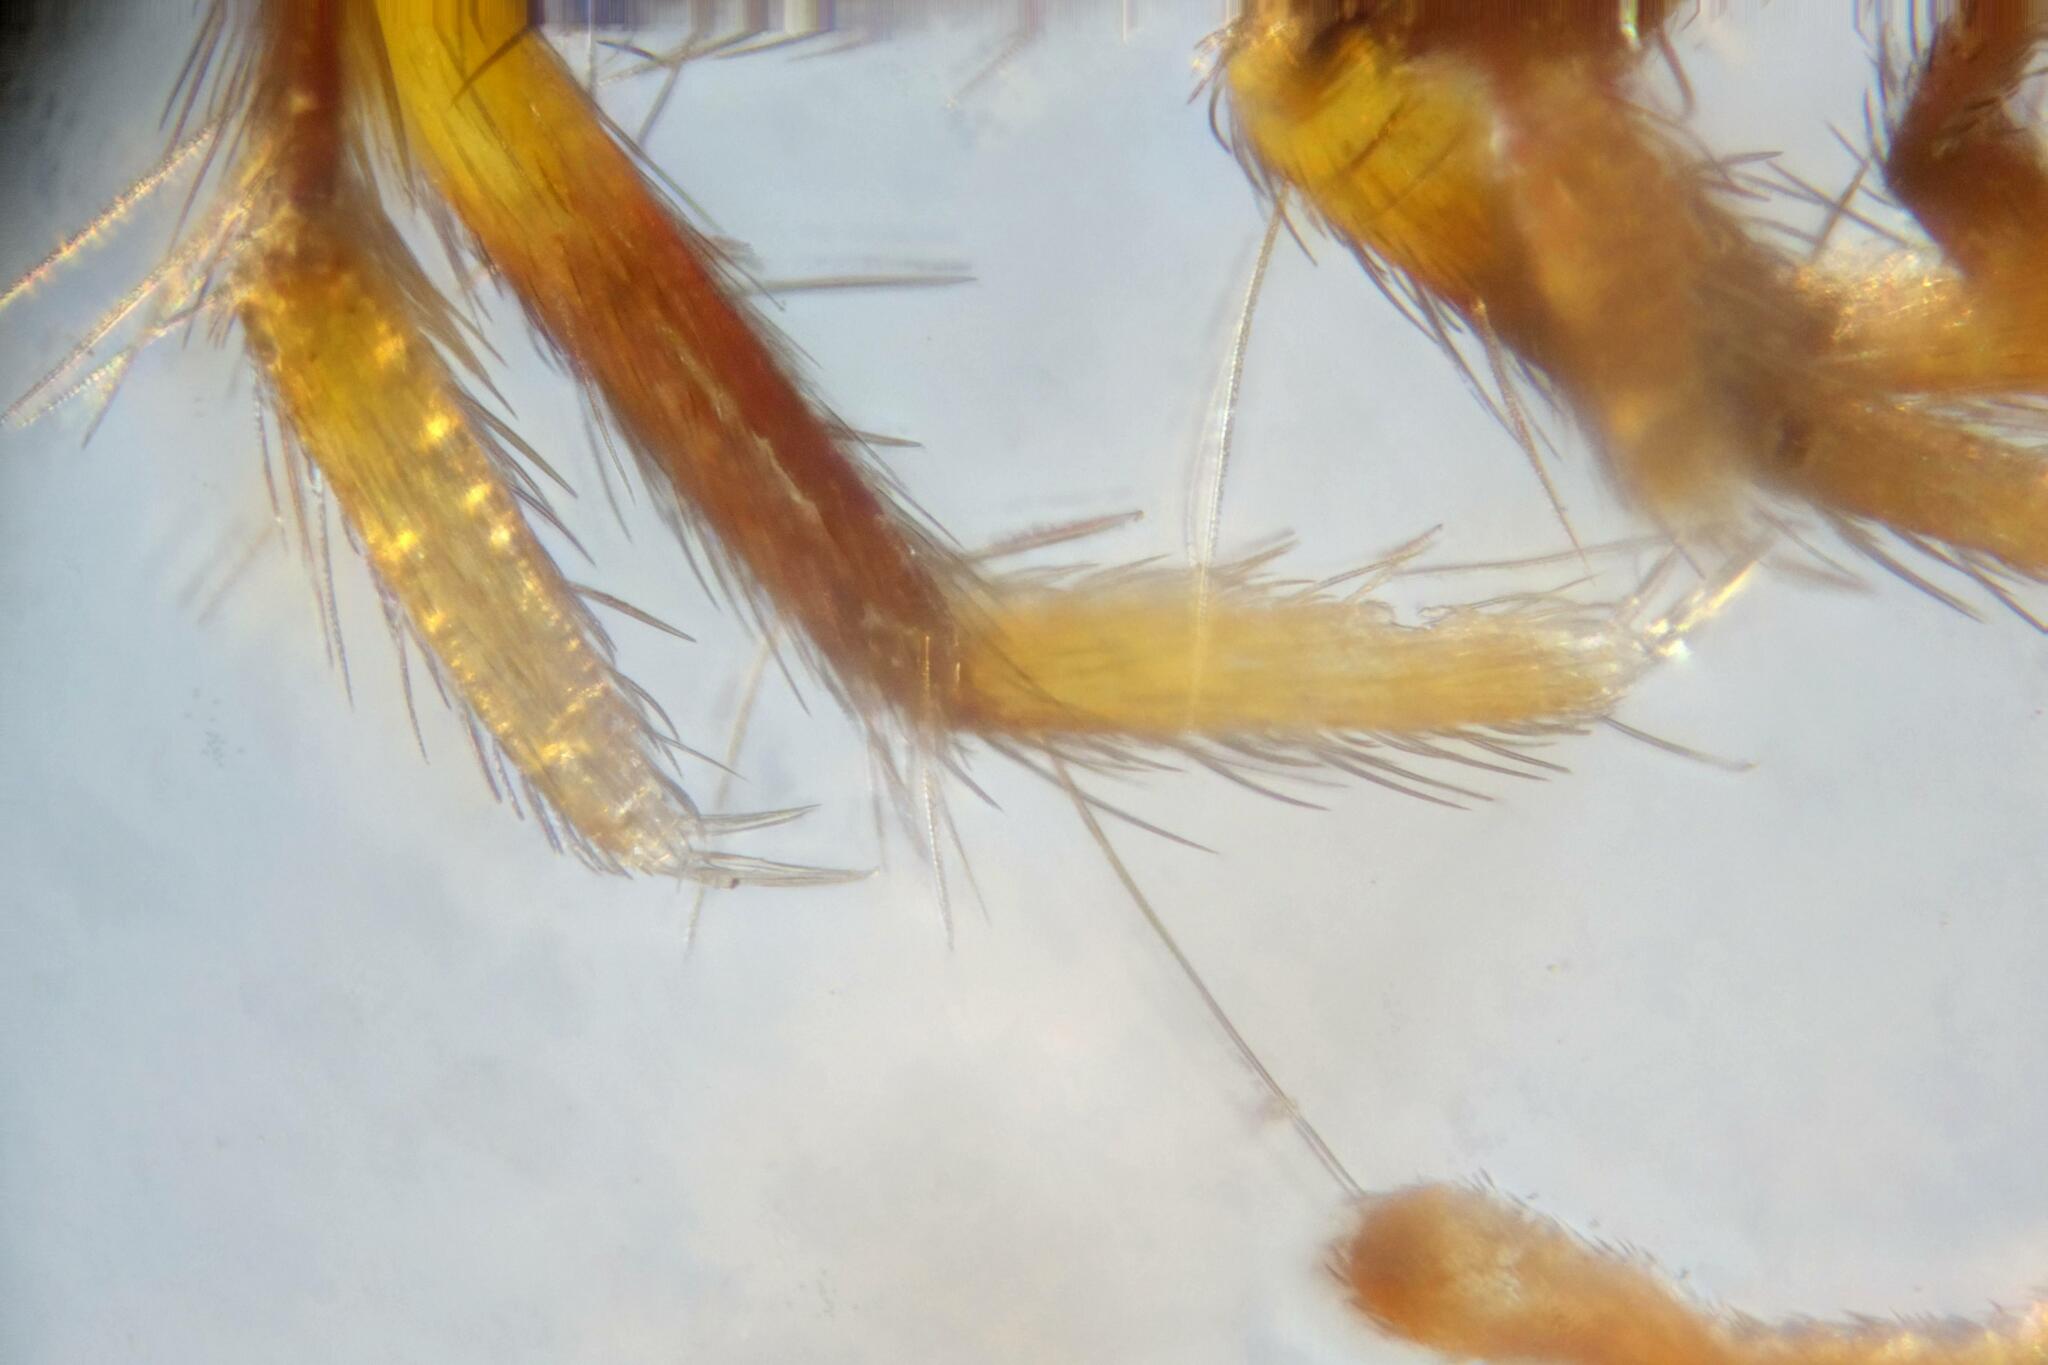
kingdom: Animalia
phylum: Arthropoda
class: Collembola
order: Entomobryomorpha
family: Orchesellidae
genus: Orchesella
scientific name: Orchesella cincta
